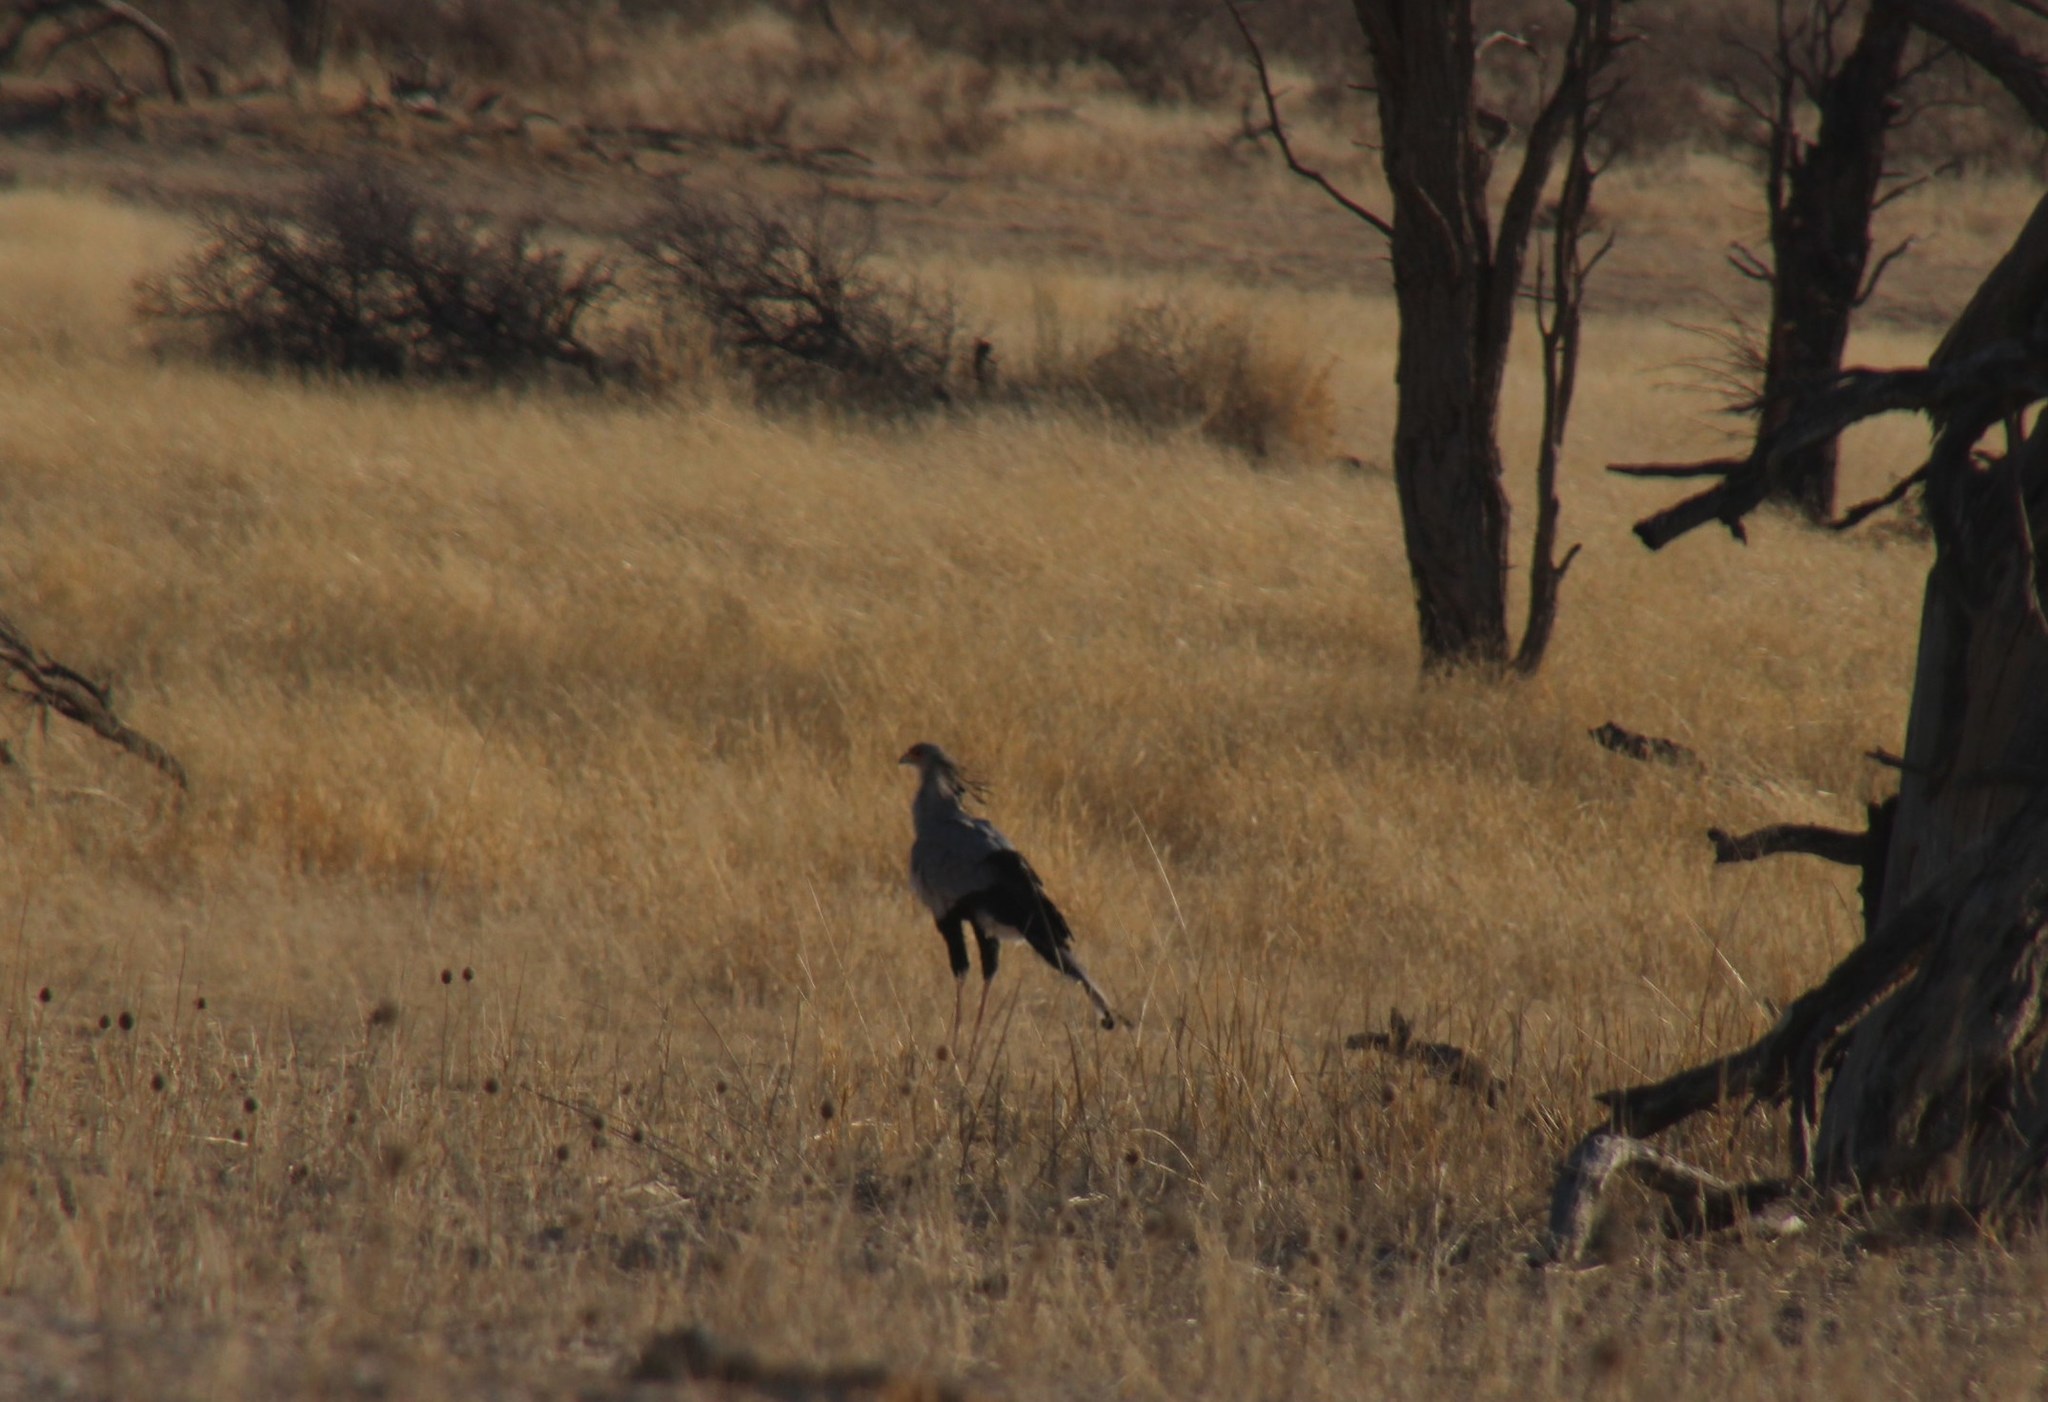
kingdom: Animalia
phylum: Chordata
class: Aves
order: Accipitriformes
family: Sagittariidae
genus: Sagittarius
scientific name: Sagittarius serpentarius
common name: Secretarybird
